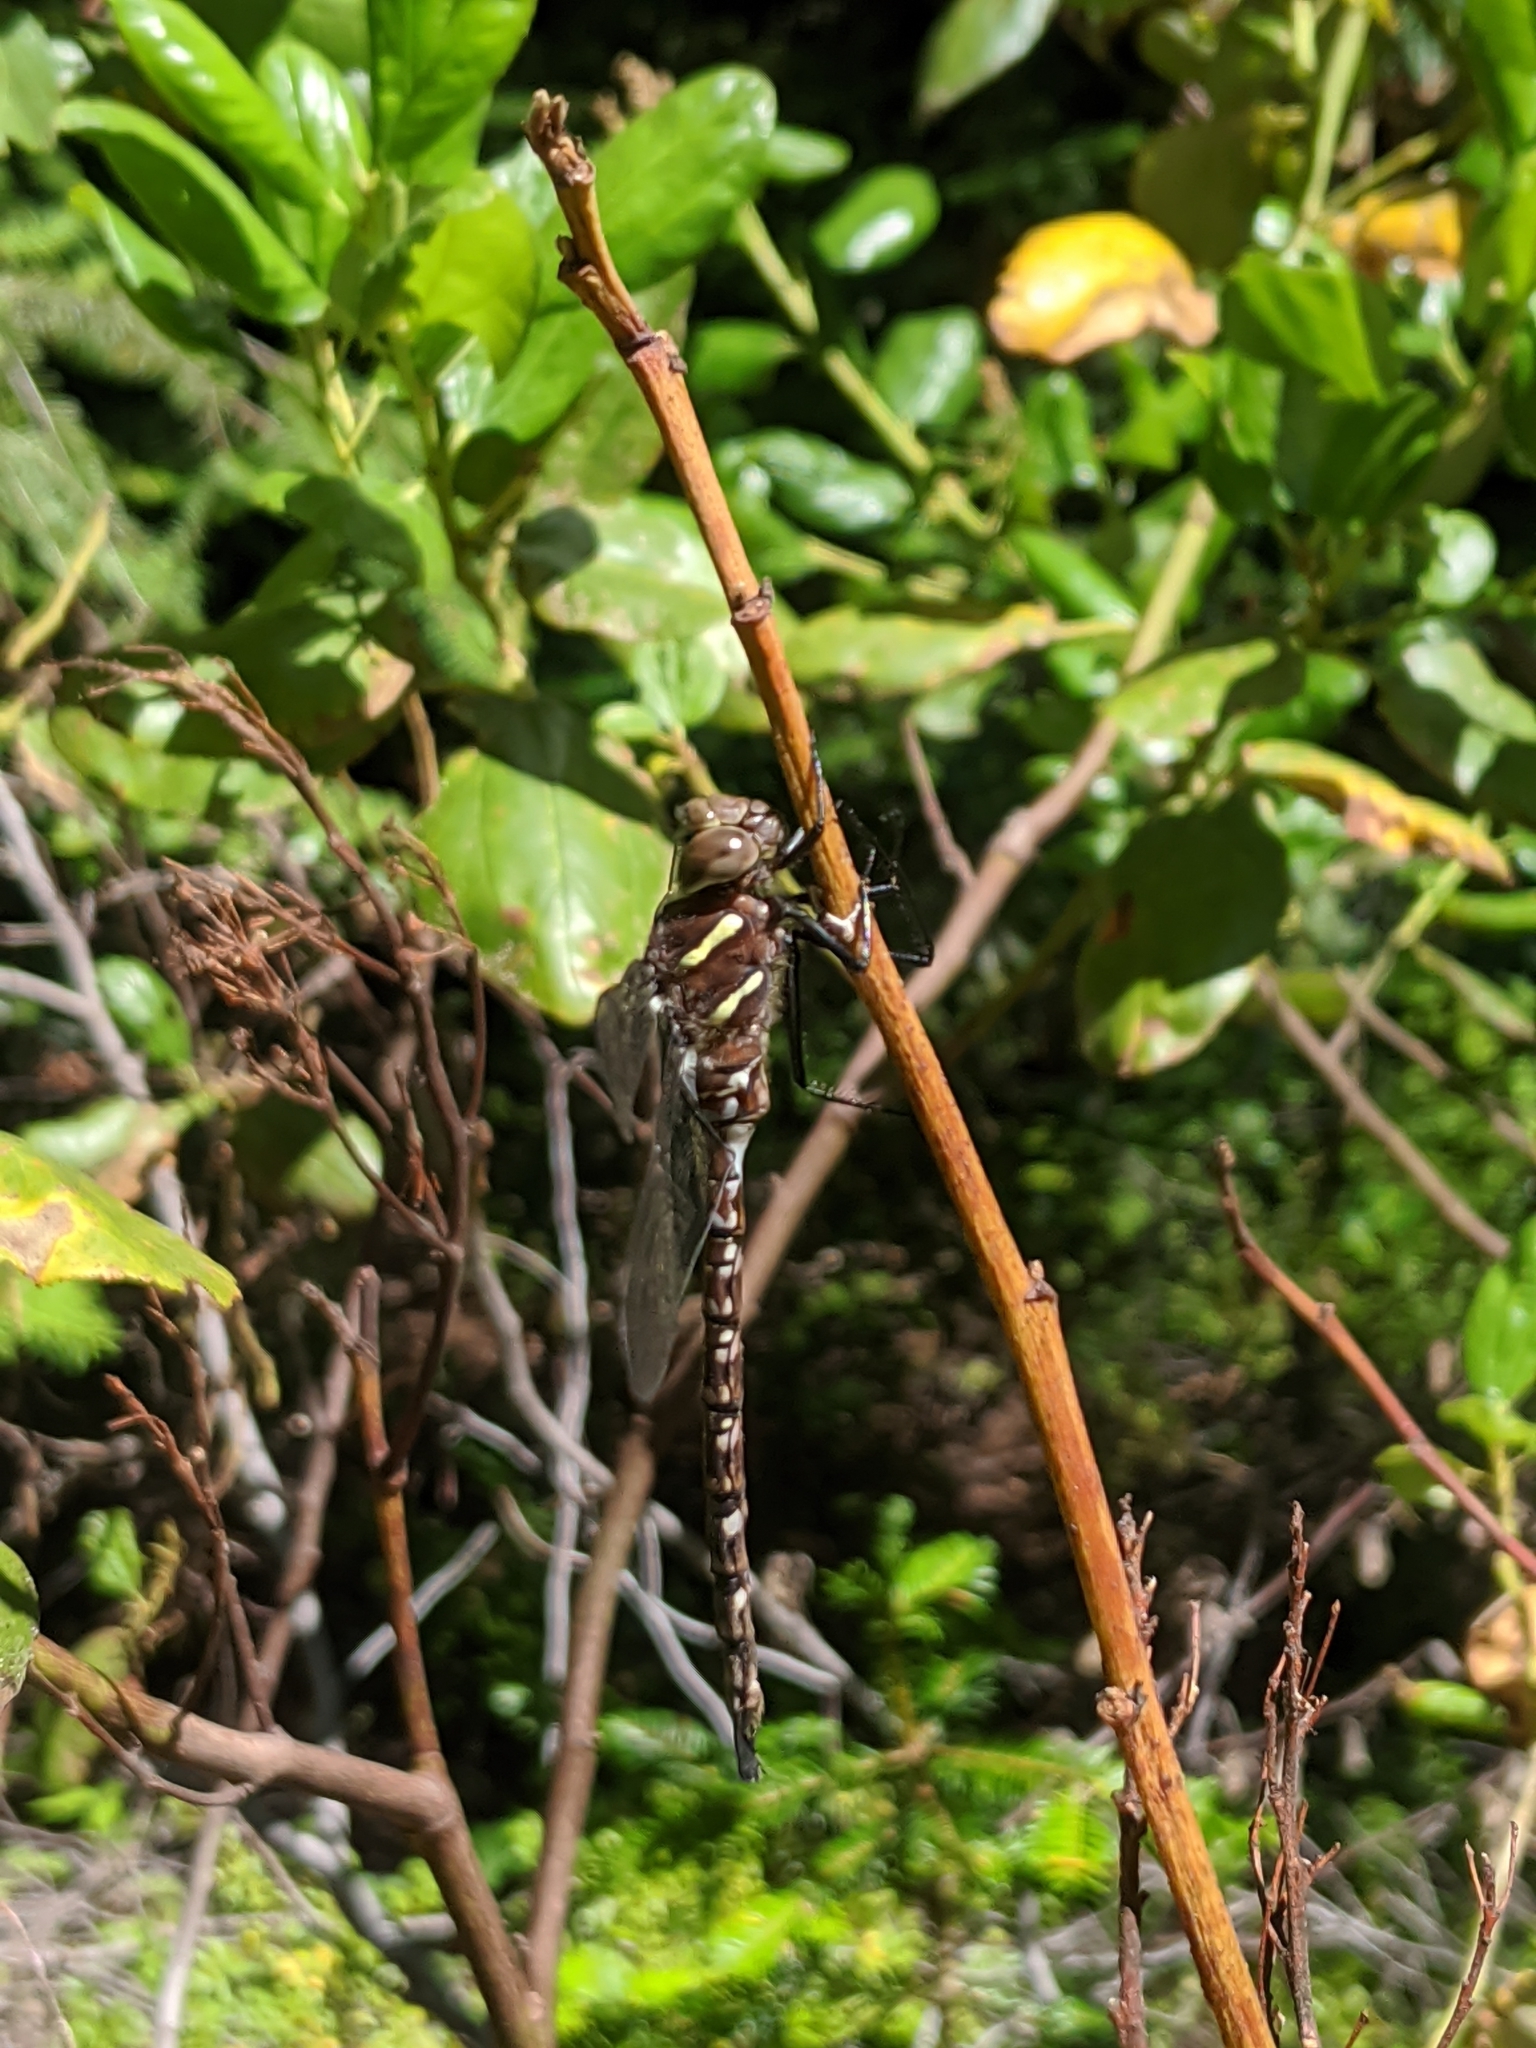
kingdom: Animalia
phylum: Arthropoda
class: Insecta
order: Odonata
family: Aeshnidae
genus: Aeshna
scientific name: Aeshna umbrosa
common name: Shadow darner
